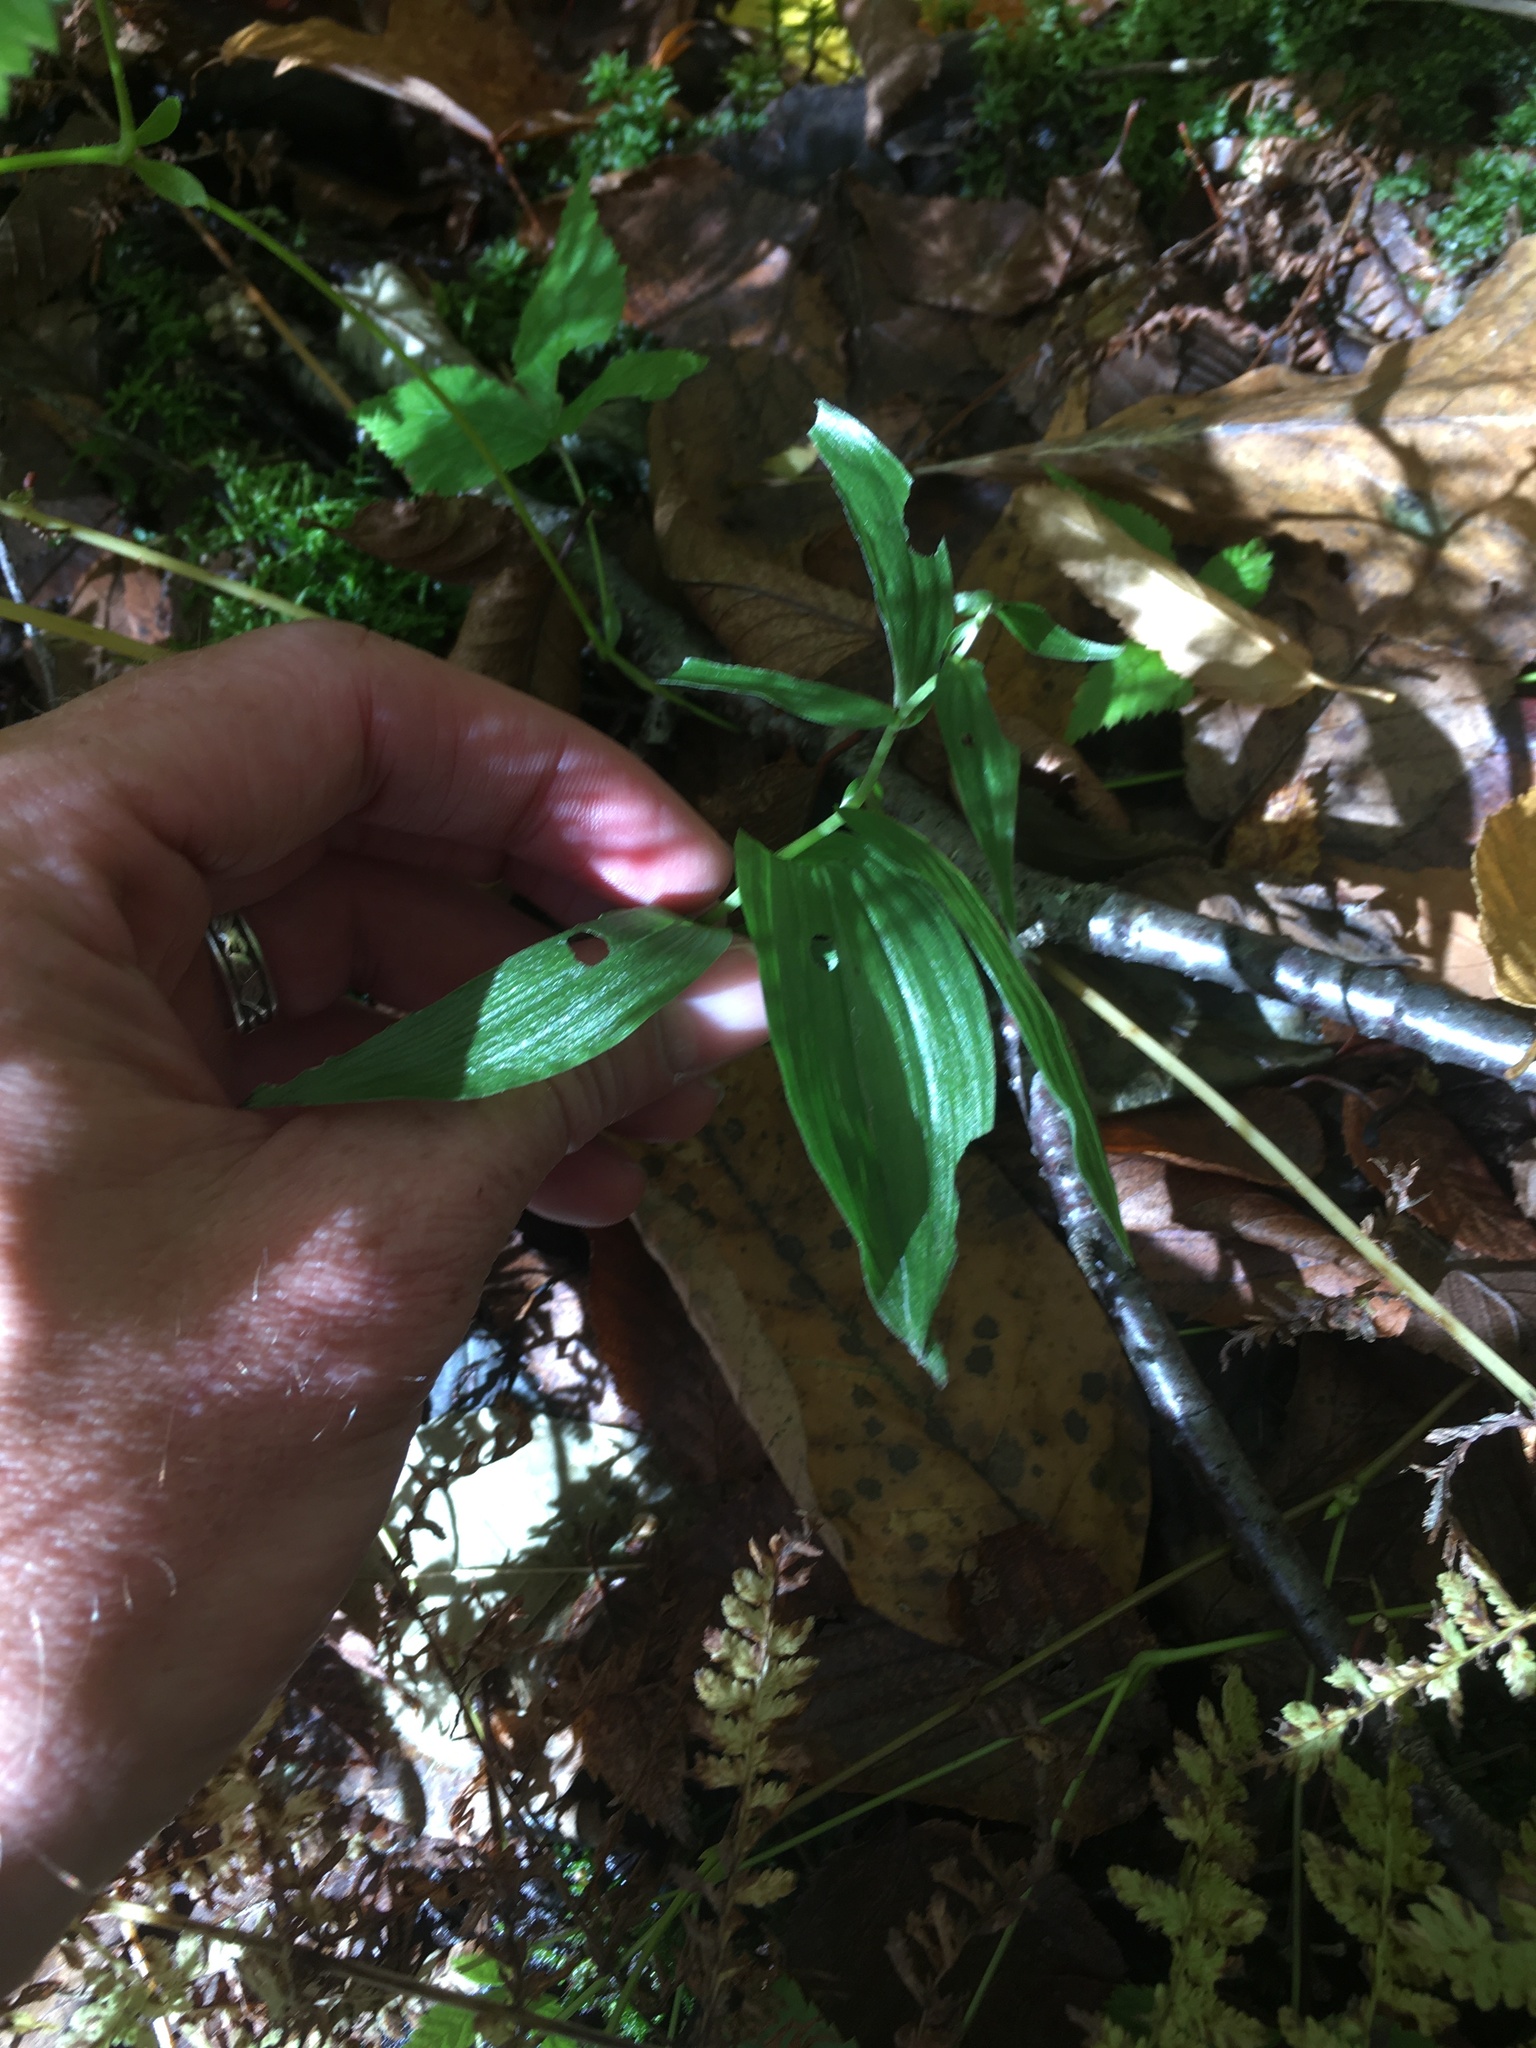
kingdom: Plantae
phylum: Tracheophyta
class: Liliopsida
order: Asparagales
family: Orchidaceae
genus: Epipactis
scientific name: Epipactis helleborine
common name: Broad-leaved helleborine
